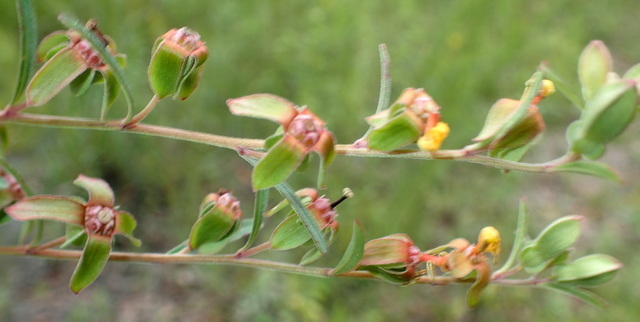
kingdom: Plantae
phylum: Tracheophyta
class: Magnoliopsida
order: Myrtales
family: Onagraceae
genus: Ludwigia
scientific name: Ludwigia maritima
